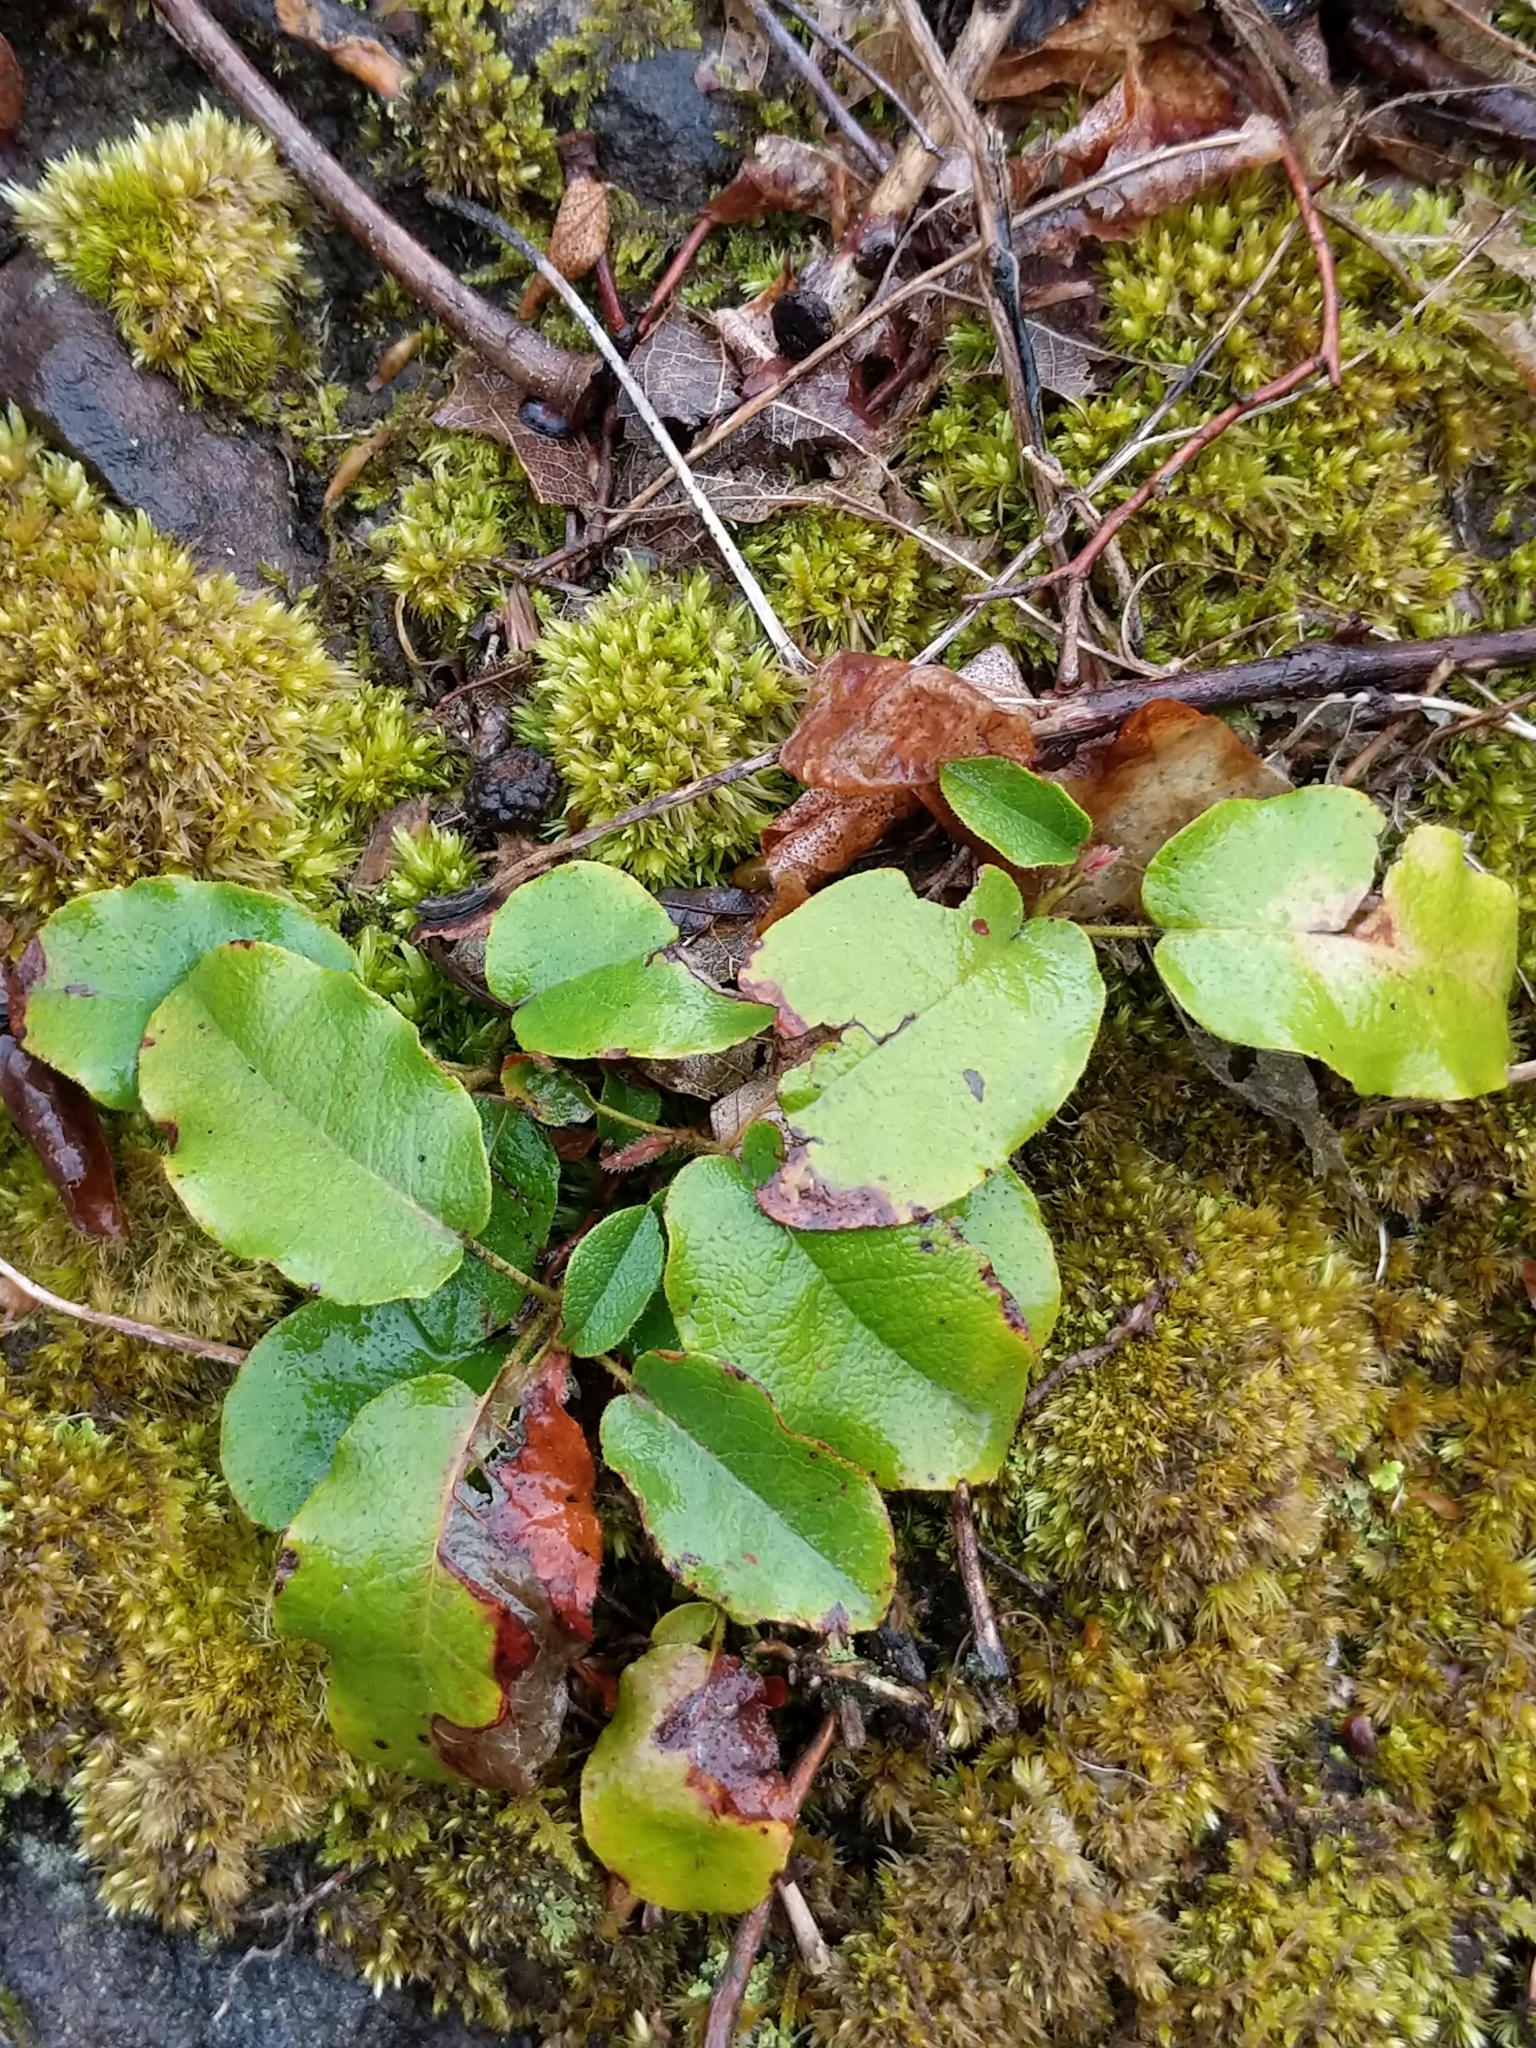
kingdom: Plantae
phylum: Tracheophyta
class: Magnoliopsida
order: Ericales
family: Ericaceae
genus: Epigaea
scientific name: Epigaea repens
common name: Gravelroot
